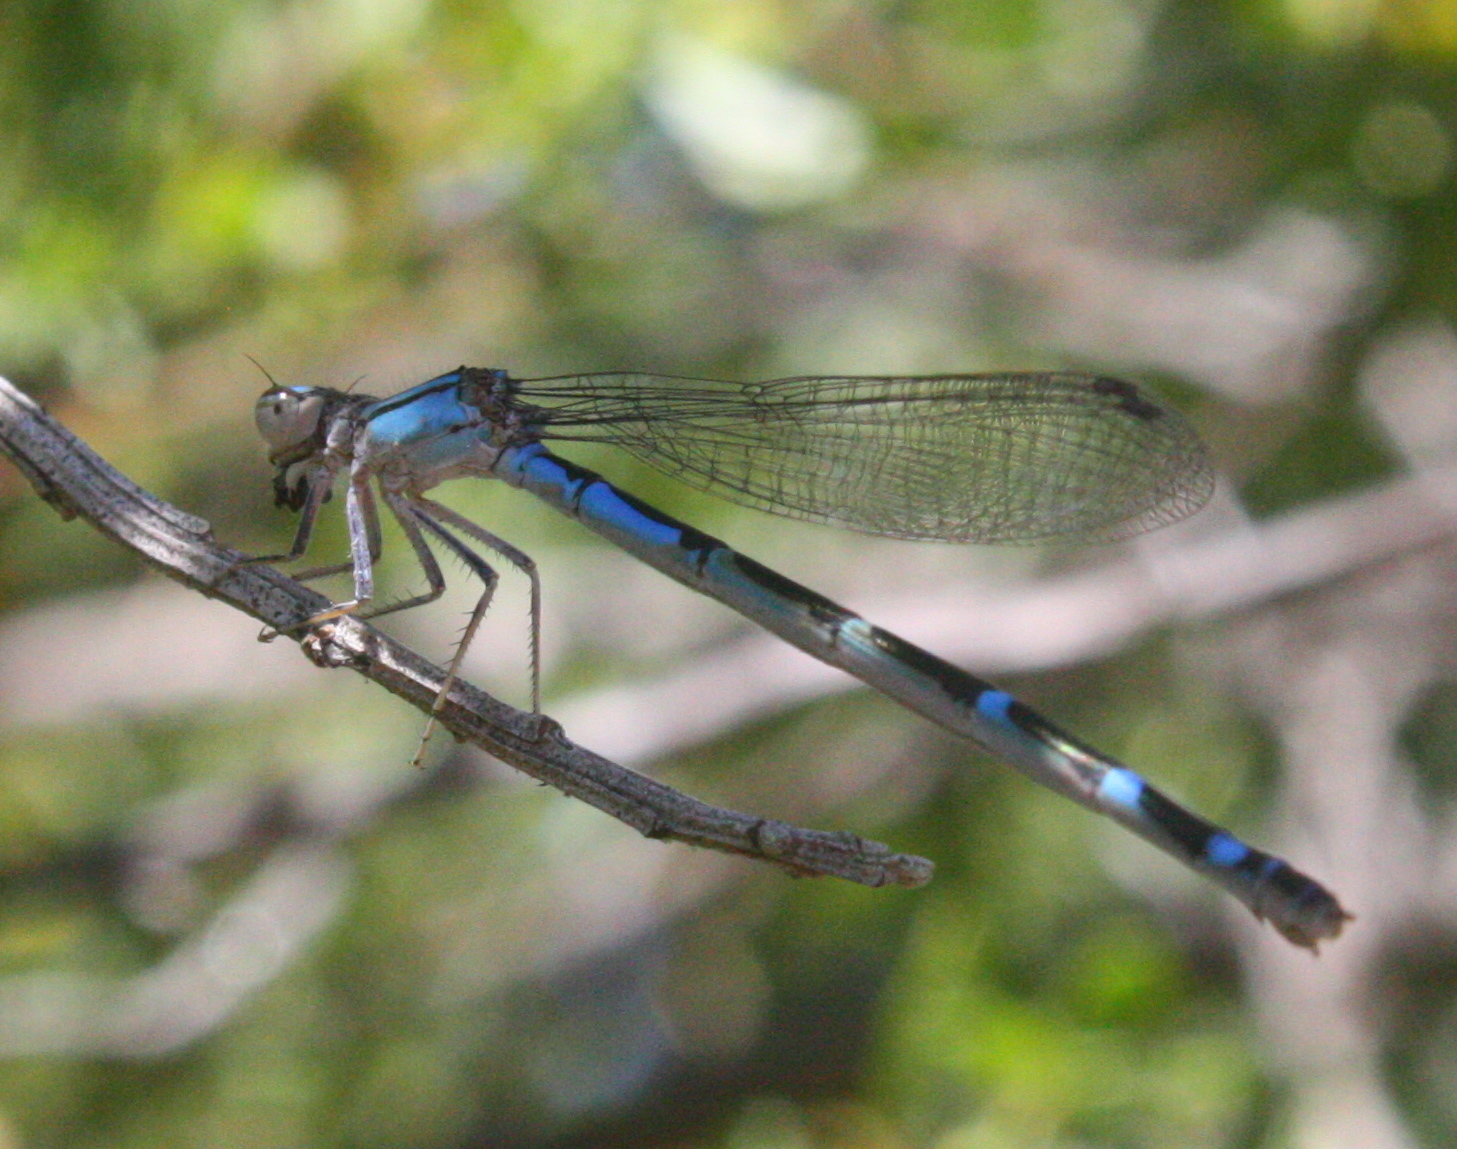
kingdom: Animalia
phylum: Arthropoda
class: Insecta
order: Odonata
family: Coenagrionidae
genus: Enallagma
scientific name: Enallagma civile
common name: Damselfly
